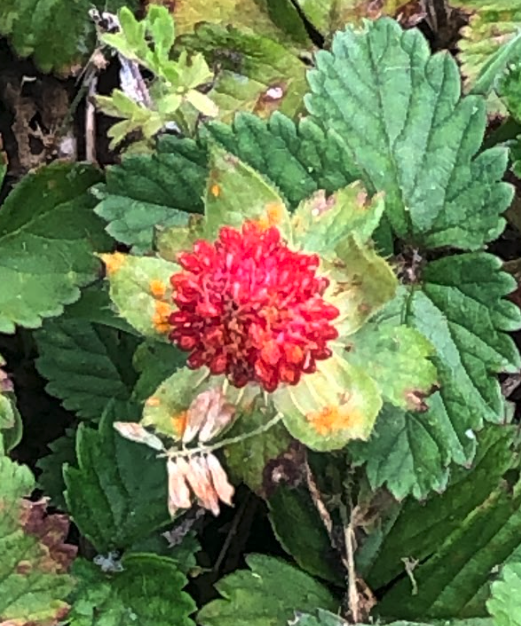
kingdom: Fungi
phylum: Basidiomycota
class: Pucciniomycetes
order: Pucciniales
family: Phragmidiaceae
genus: Phragmidium
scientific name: Phragmidium mexicanum
